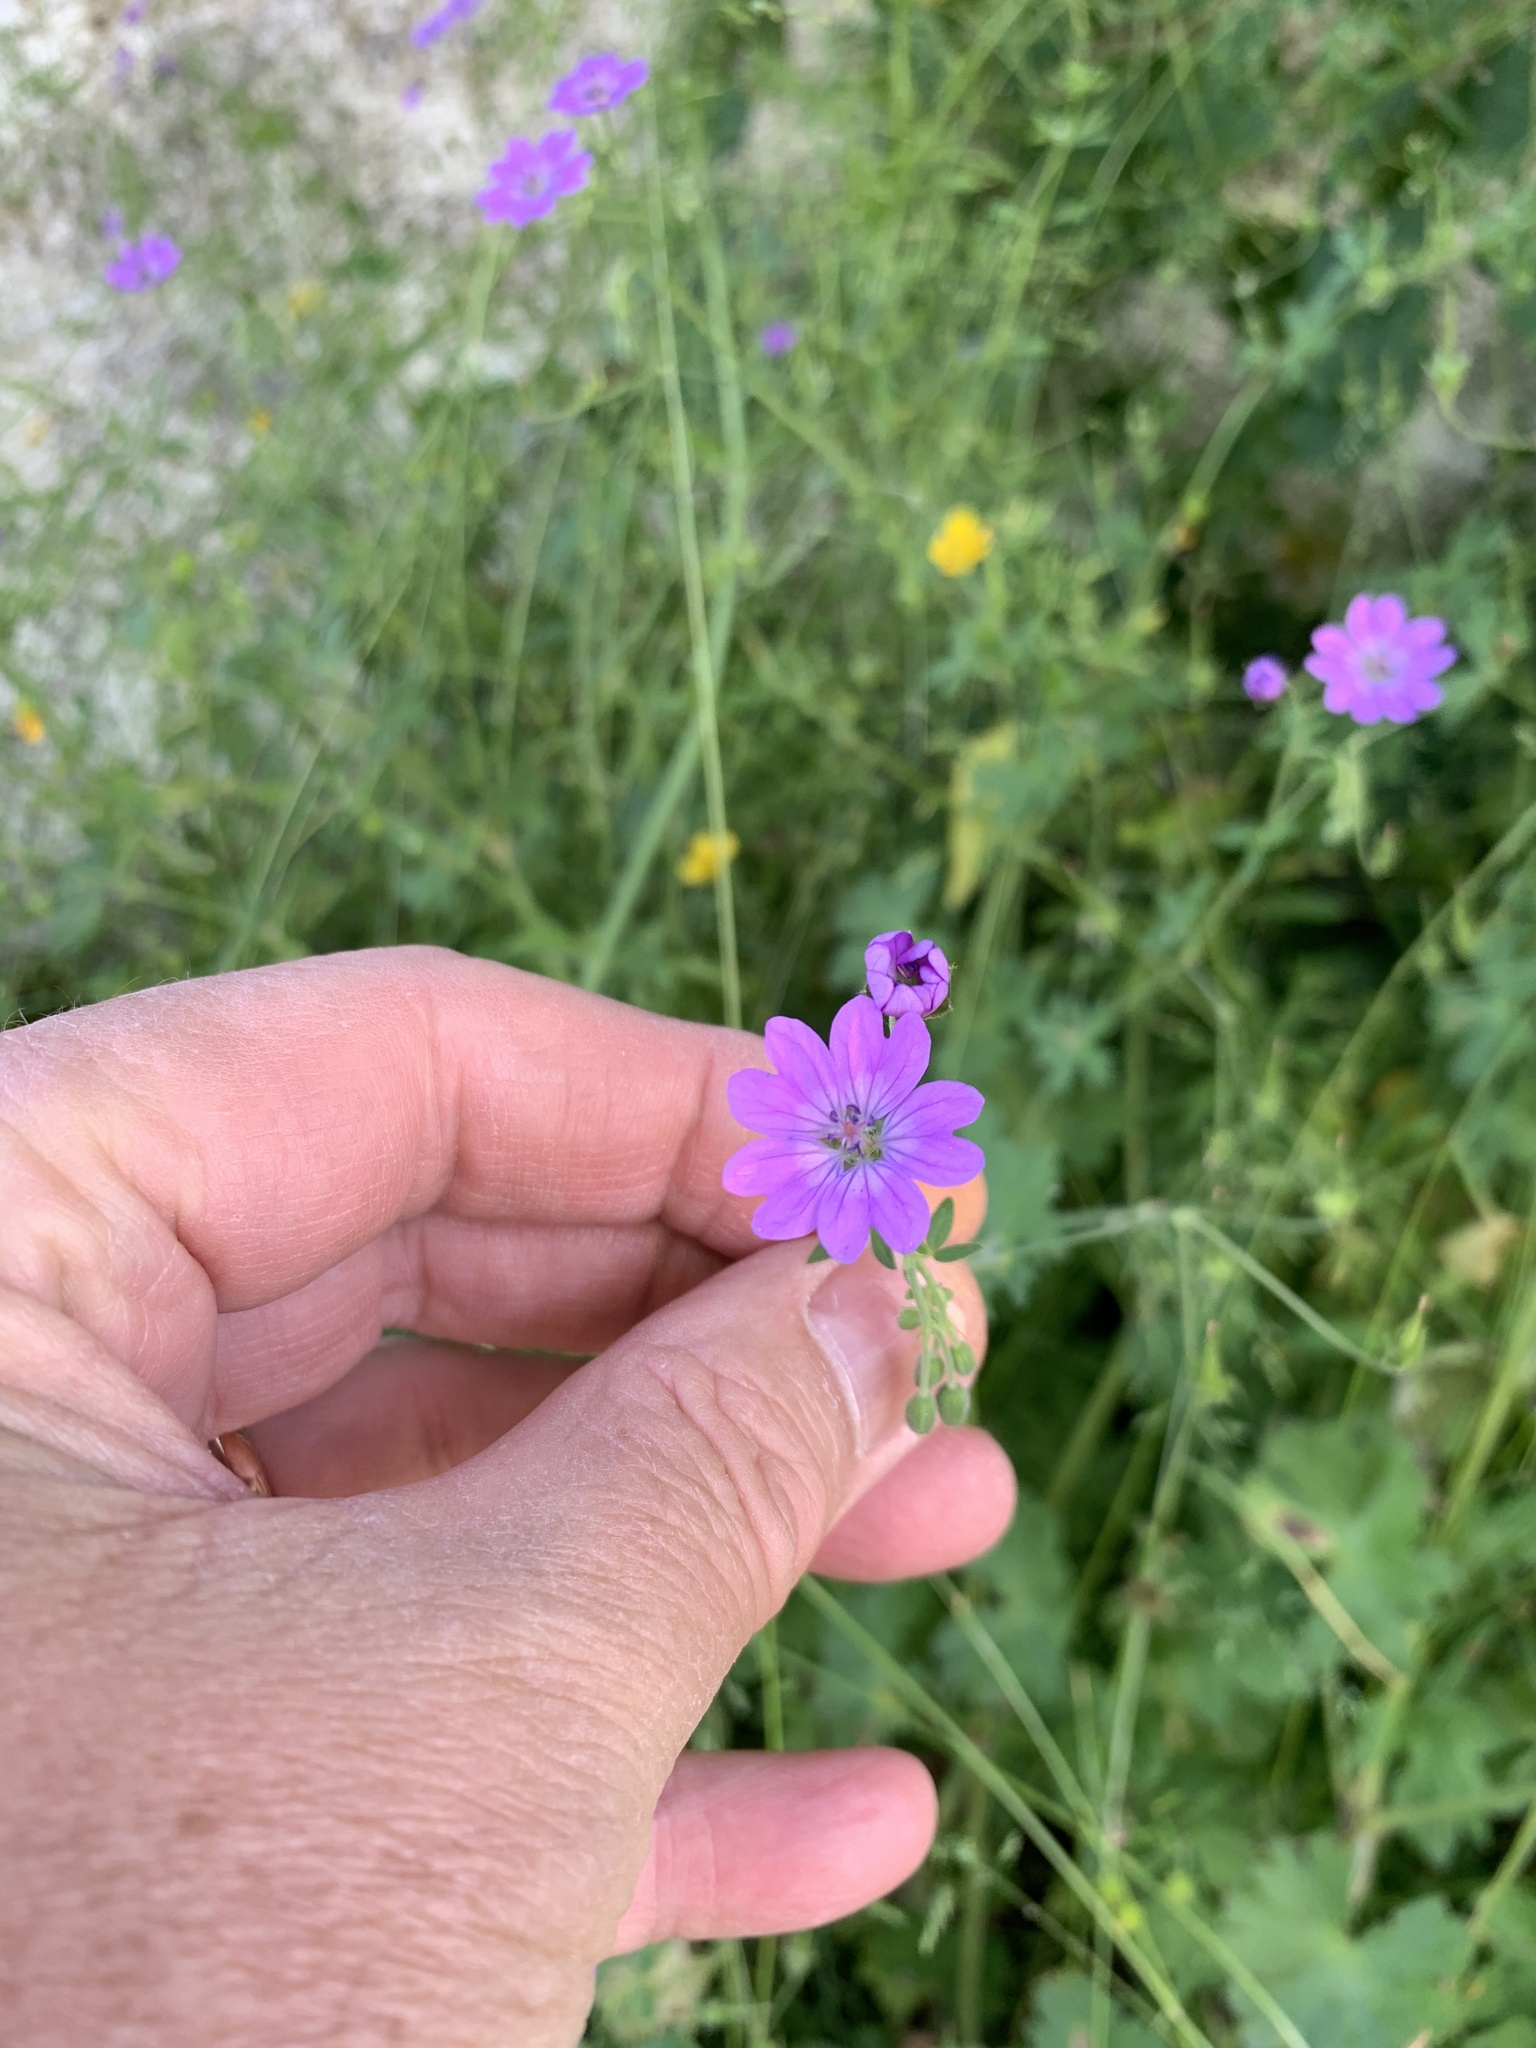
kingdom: Plantae
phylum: Tracheophyta
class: Magnoliopsida
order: Geraniales
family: Geraniaceae
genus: Geranium
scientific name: Geranium pyrenaicum
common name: Hedgerow crane's-bill
